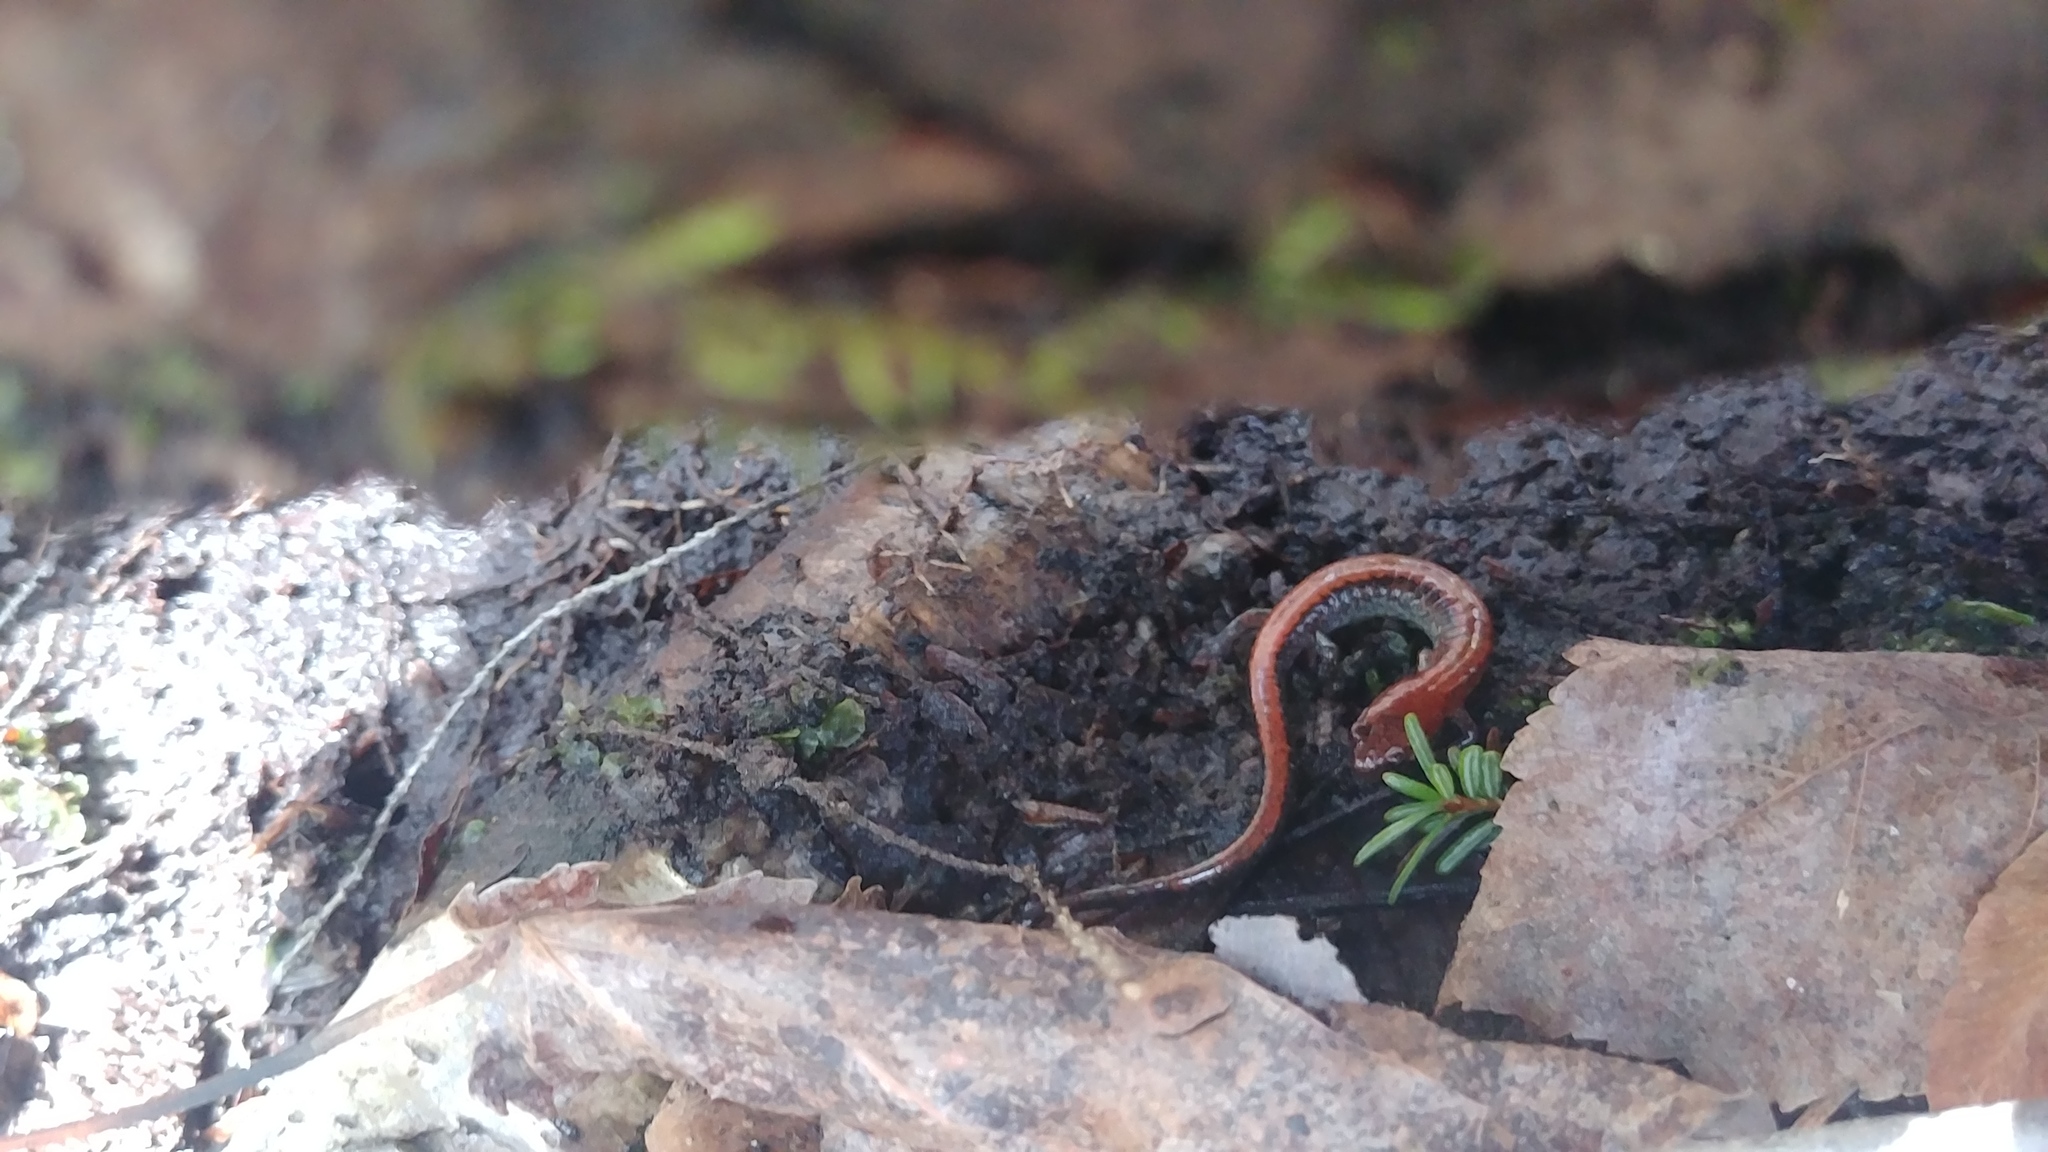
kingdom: Animalia
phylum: Chordata
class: Amphibia
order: Caudata
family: Plethodontidae
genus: Plethodon
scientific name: Plethodon cinereus
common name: Redback salamander
